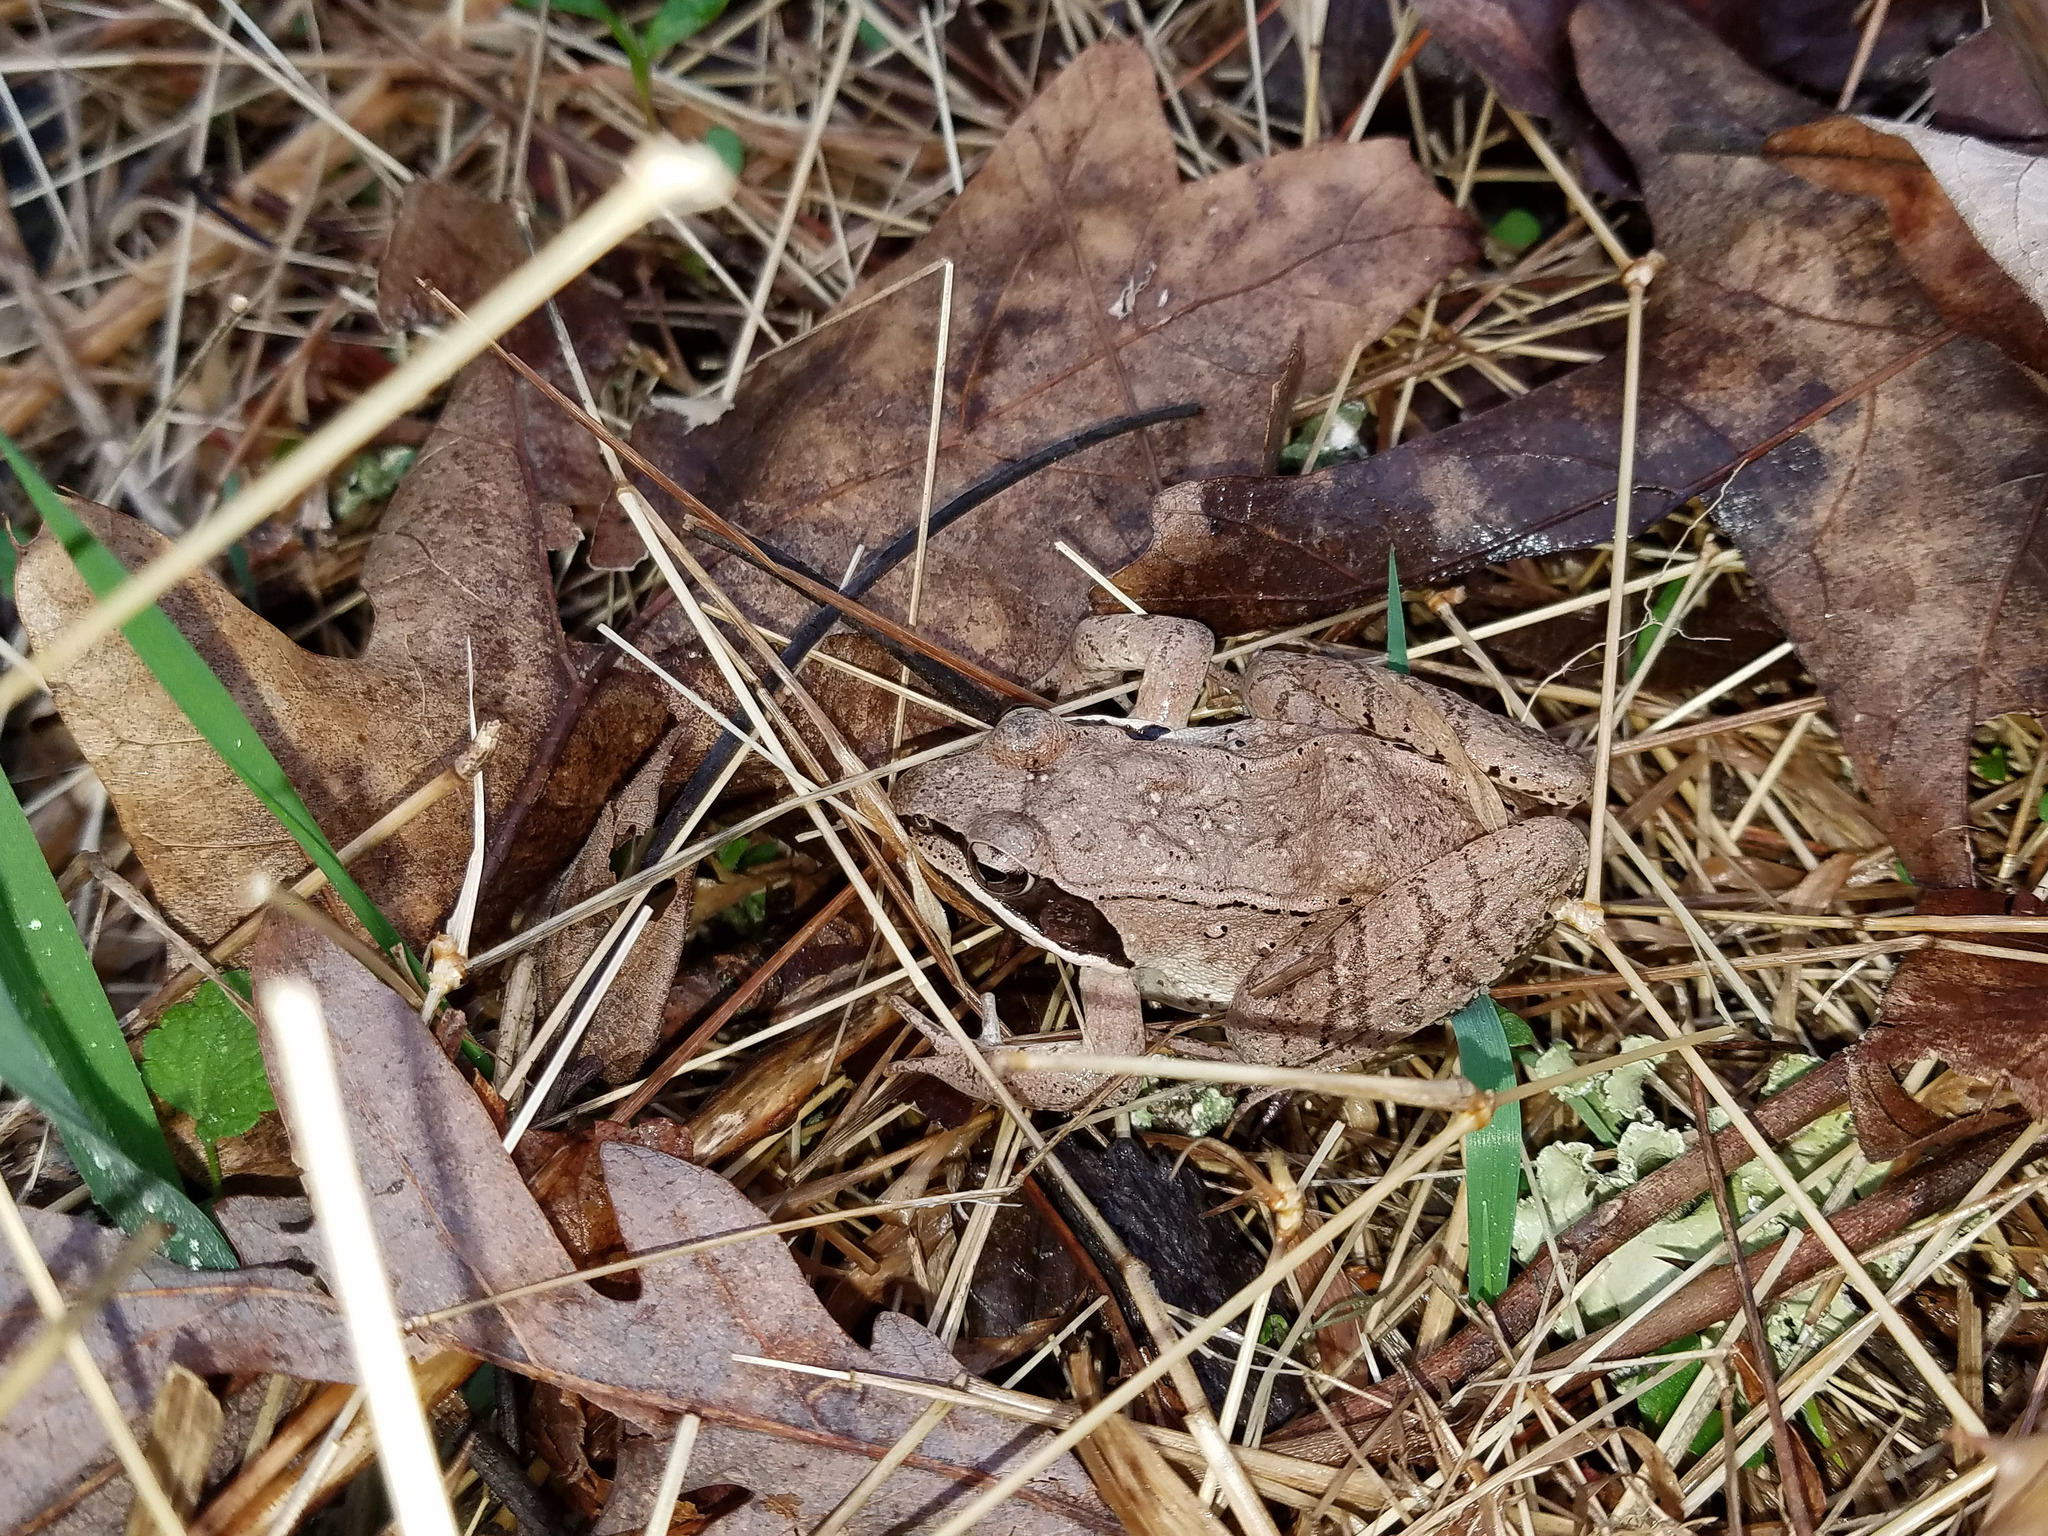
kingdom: Animalia
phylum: Chordata
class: Amphibia
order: Anura
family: Ranidae
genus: Lithobates
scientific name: Lithobates sylvaticus
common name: Wood frog
